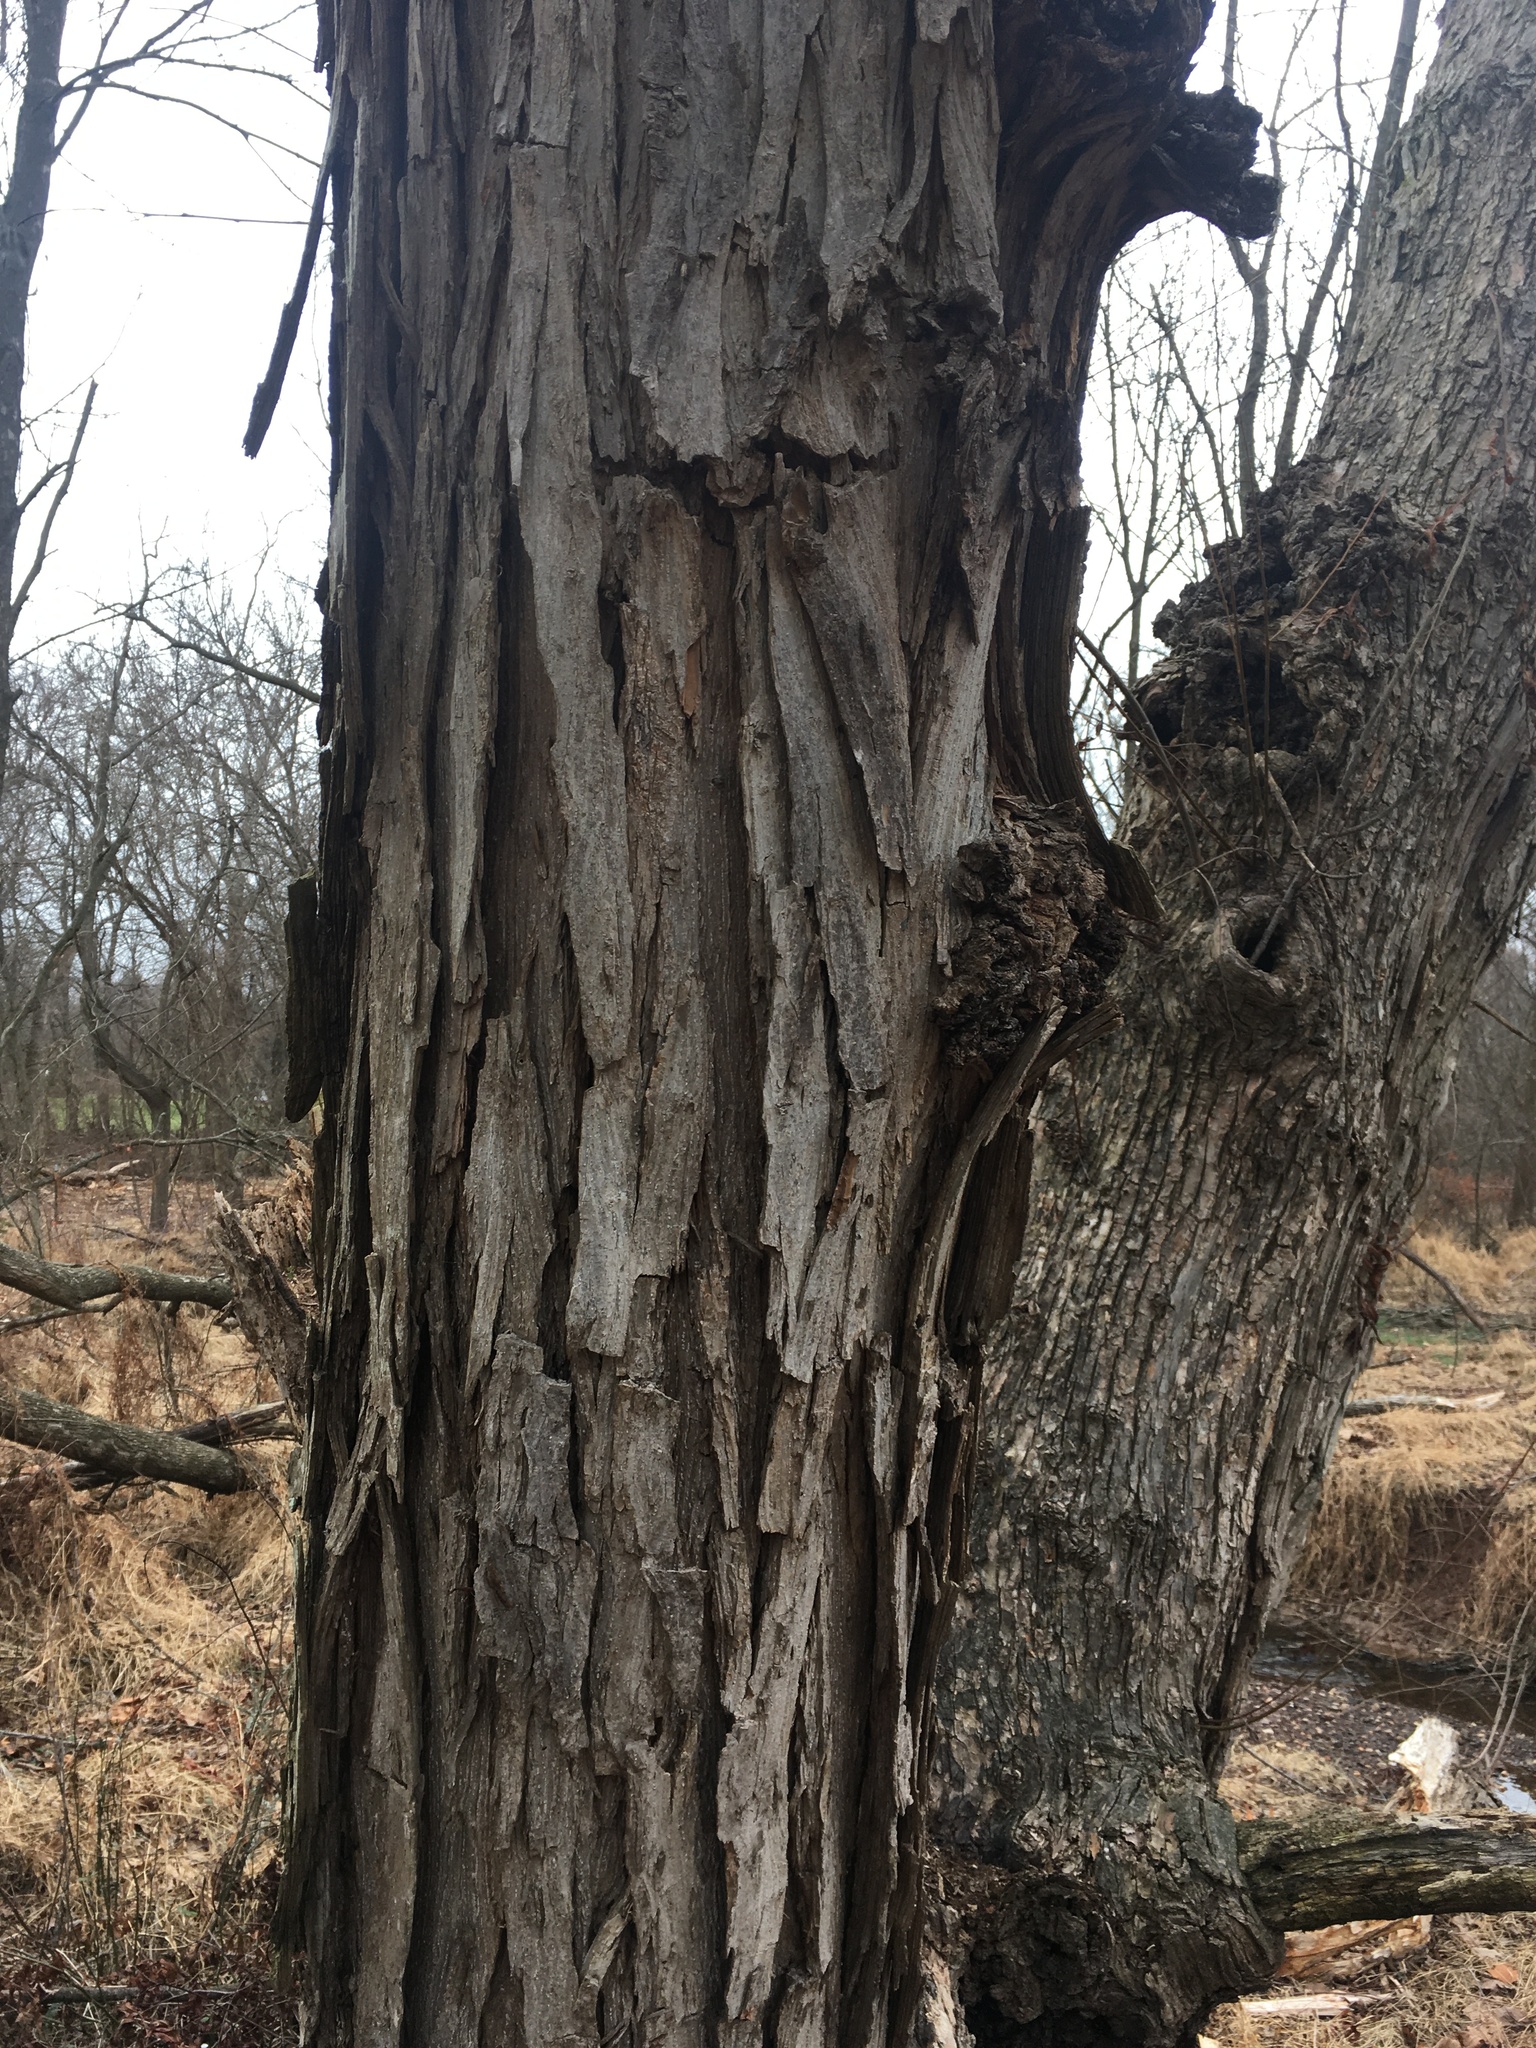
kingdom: Plantae
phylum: Tracheophyta
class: Magnoliopsida
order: Fagales
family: Juglandaceae
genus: Carya
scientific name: Carya ovata
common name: Shagbark hickory
